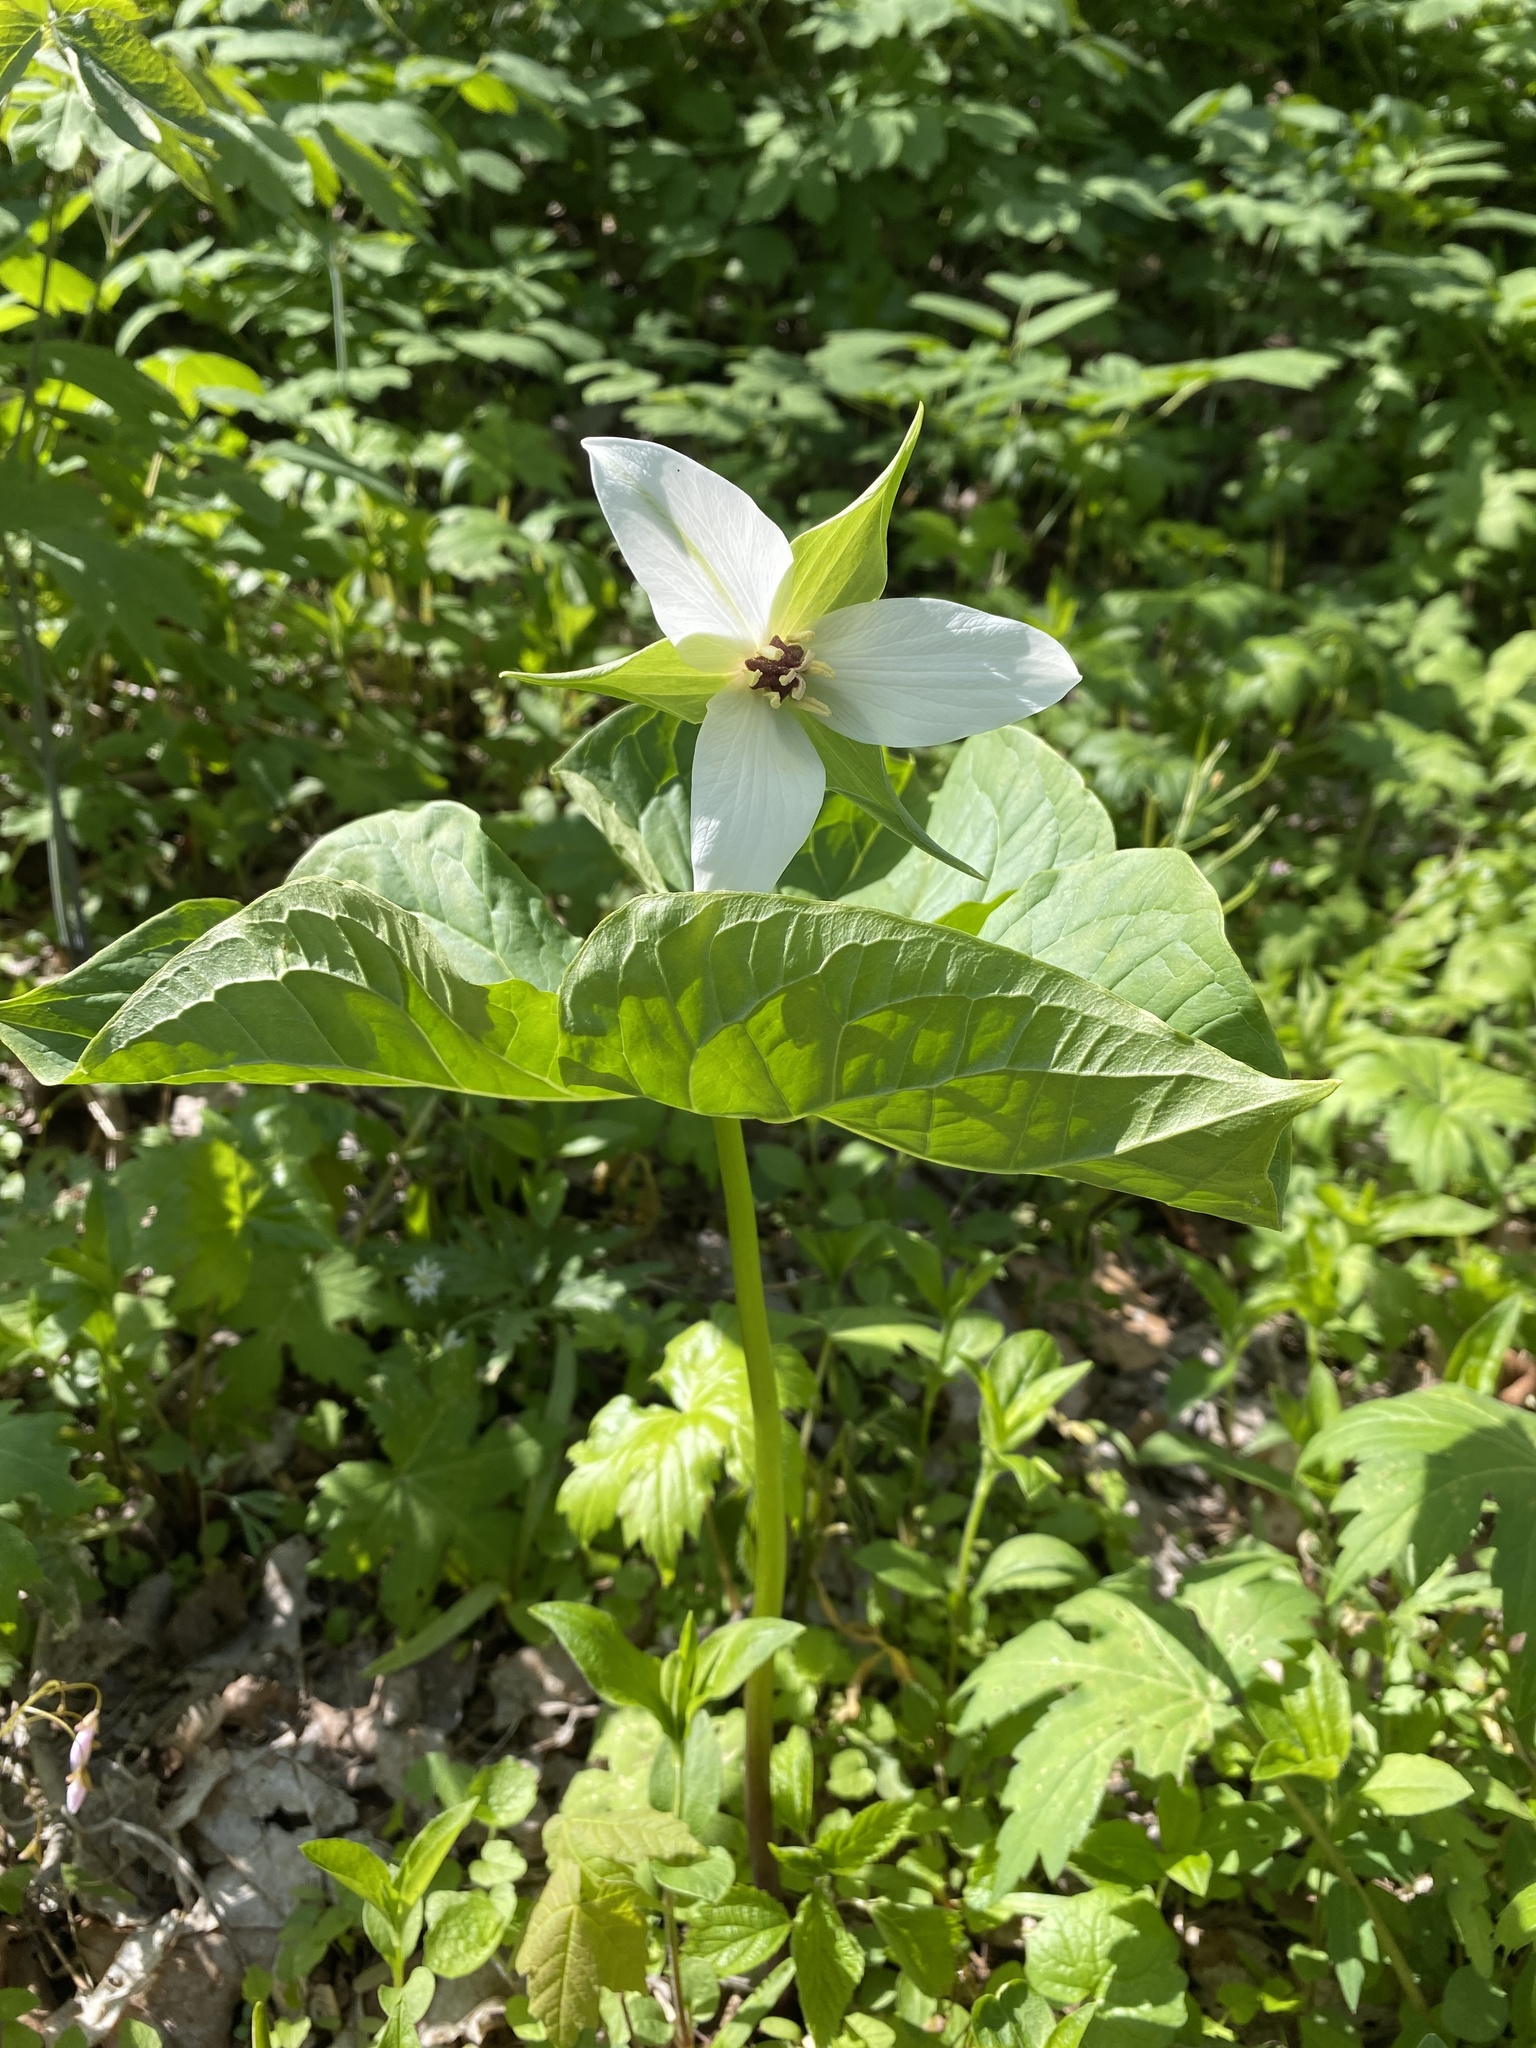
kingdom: Plantae
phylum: Tracheophyta
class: Liliopsida
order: Liliales
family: Melanthiaceae
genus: Trillium
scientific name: Trillium erectum
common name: Purple trillium
